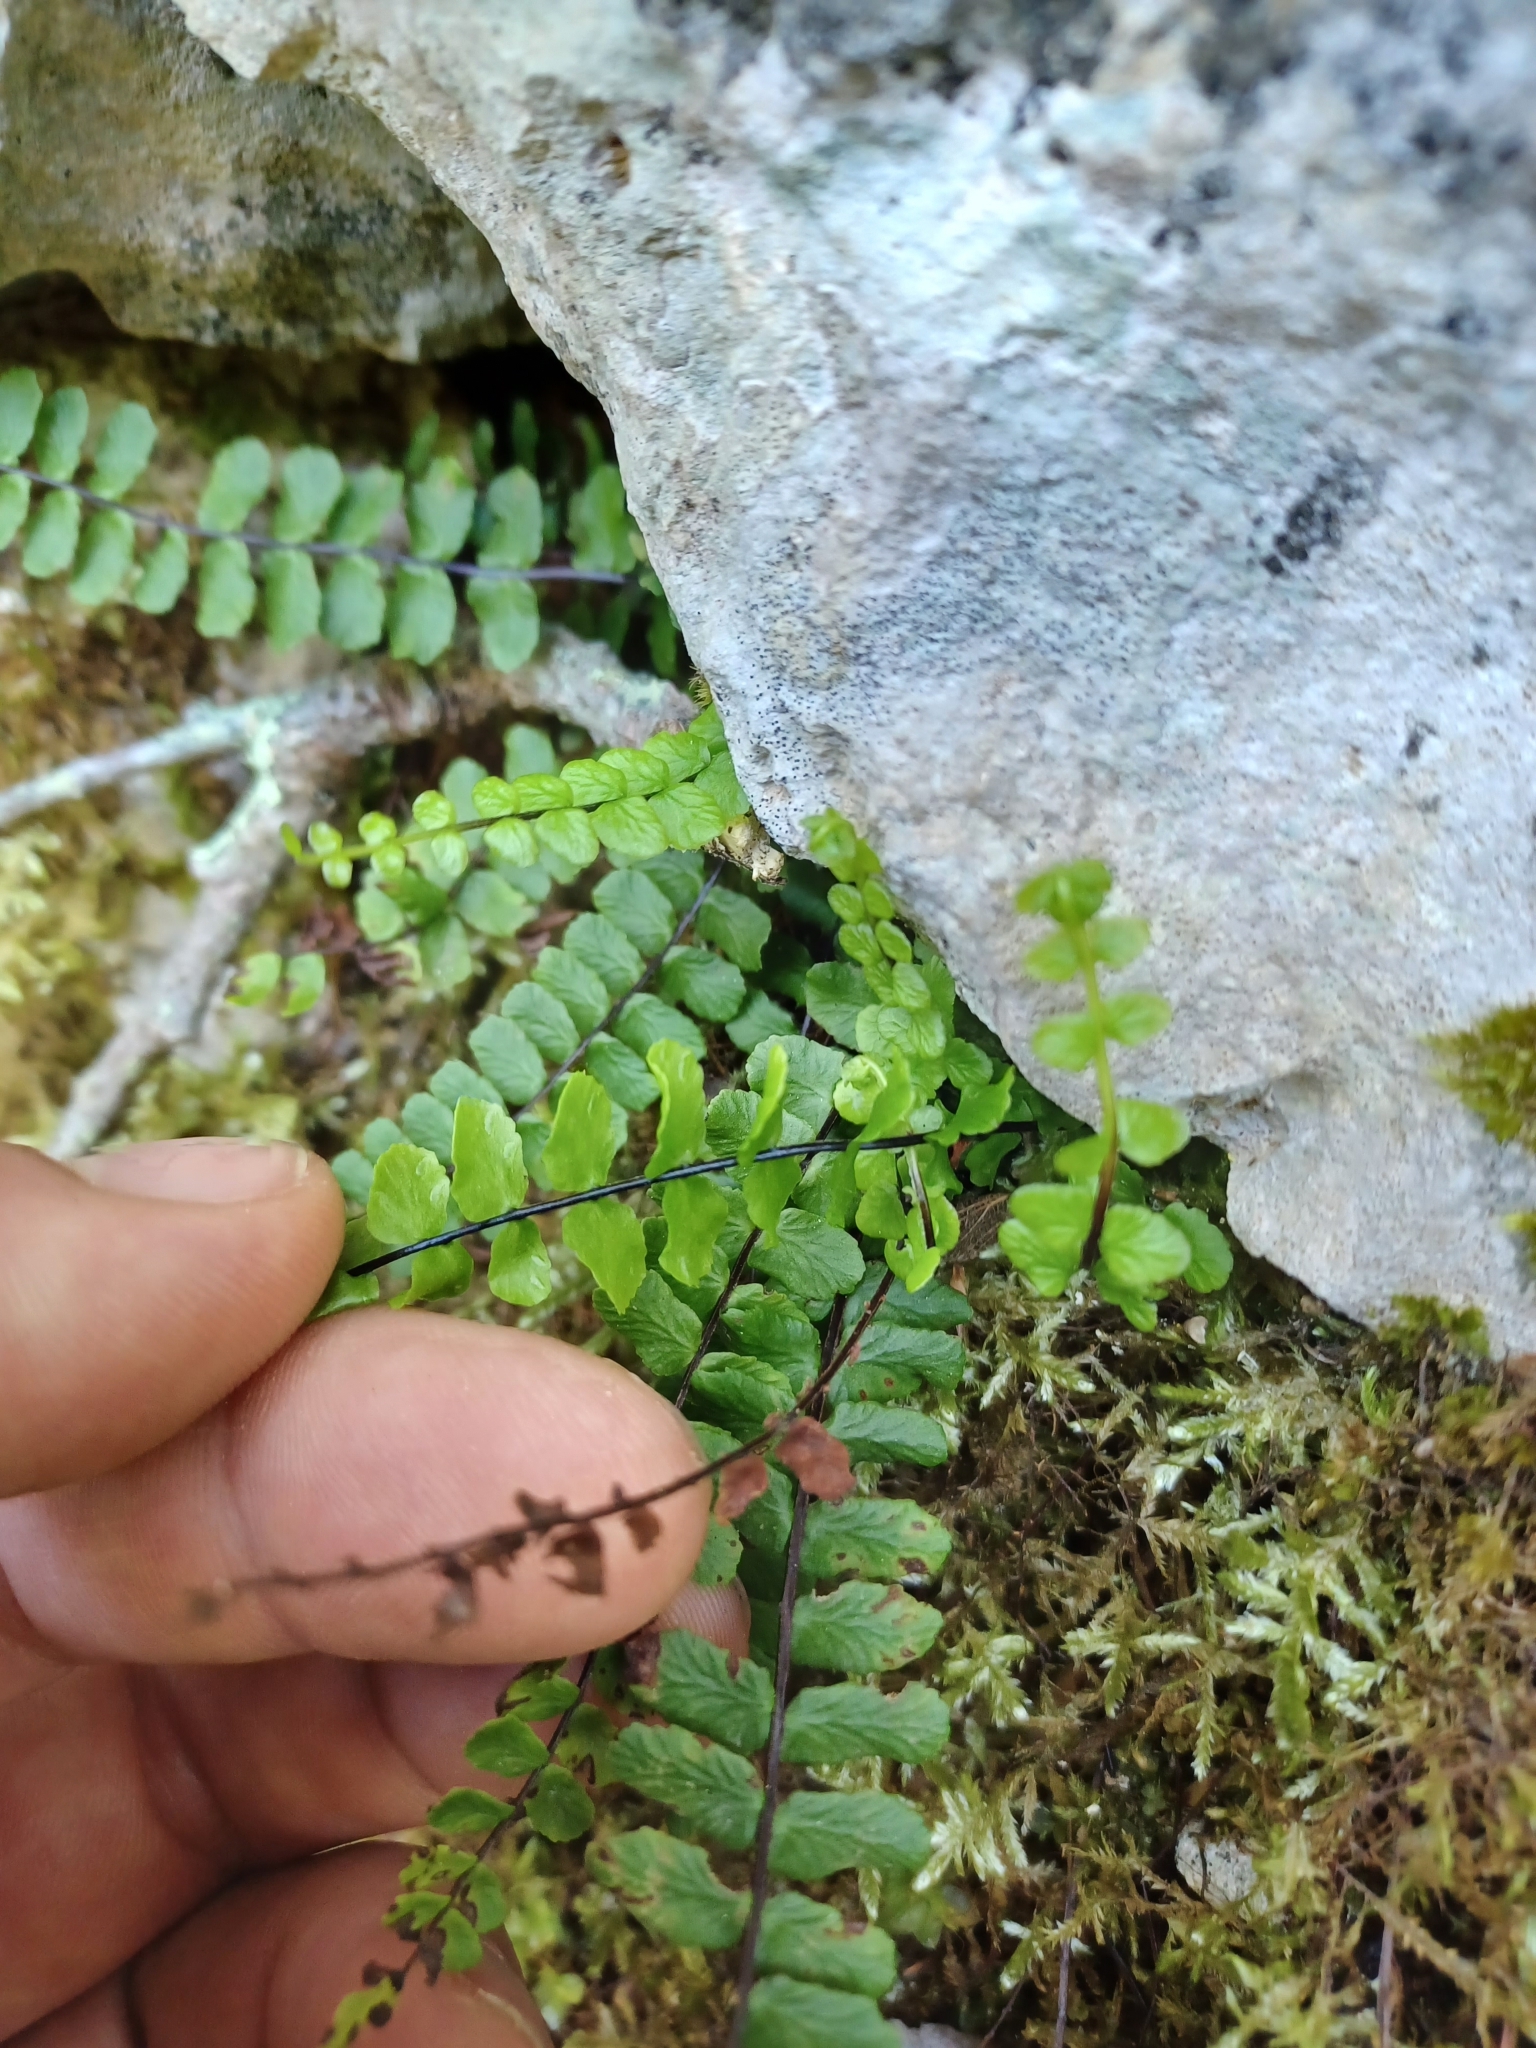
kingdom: Plantae
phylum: Tracheophyta
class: Polypodiopsida
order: Polypodiales
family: Aspleniaceae
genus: Asplenium
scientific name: Asplenium trichomanes
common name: Maidenhair spleenwort
